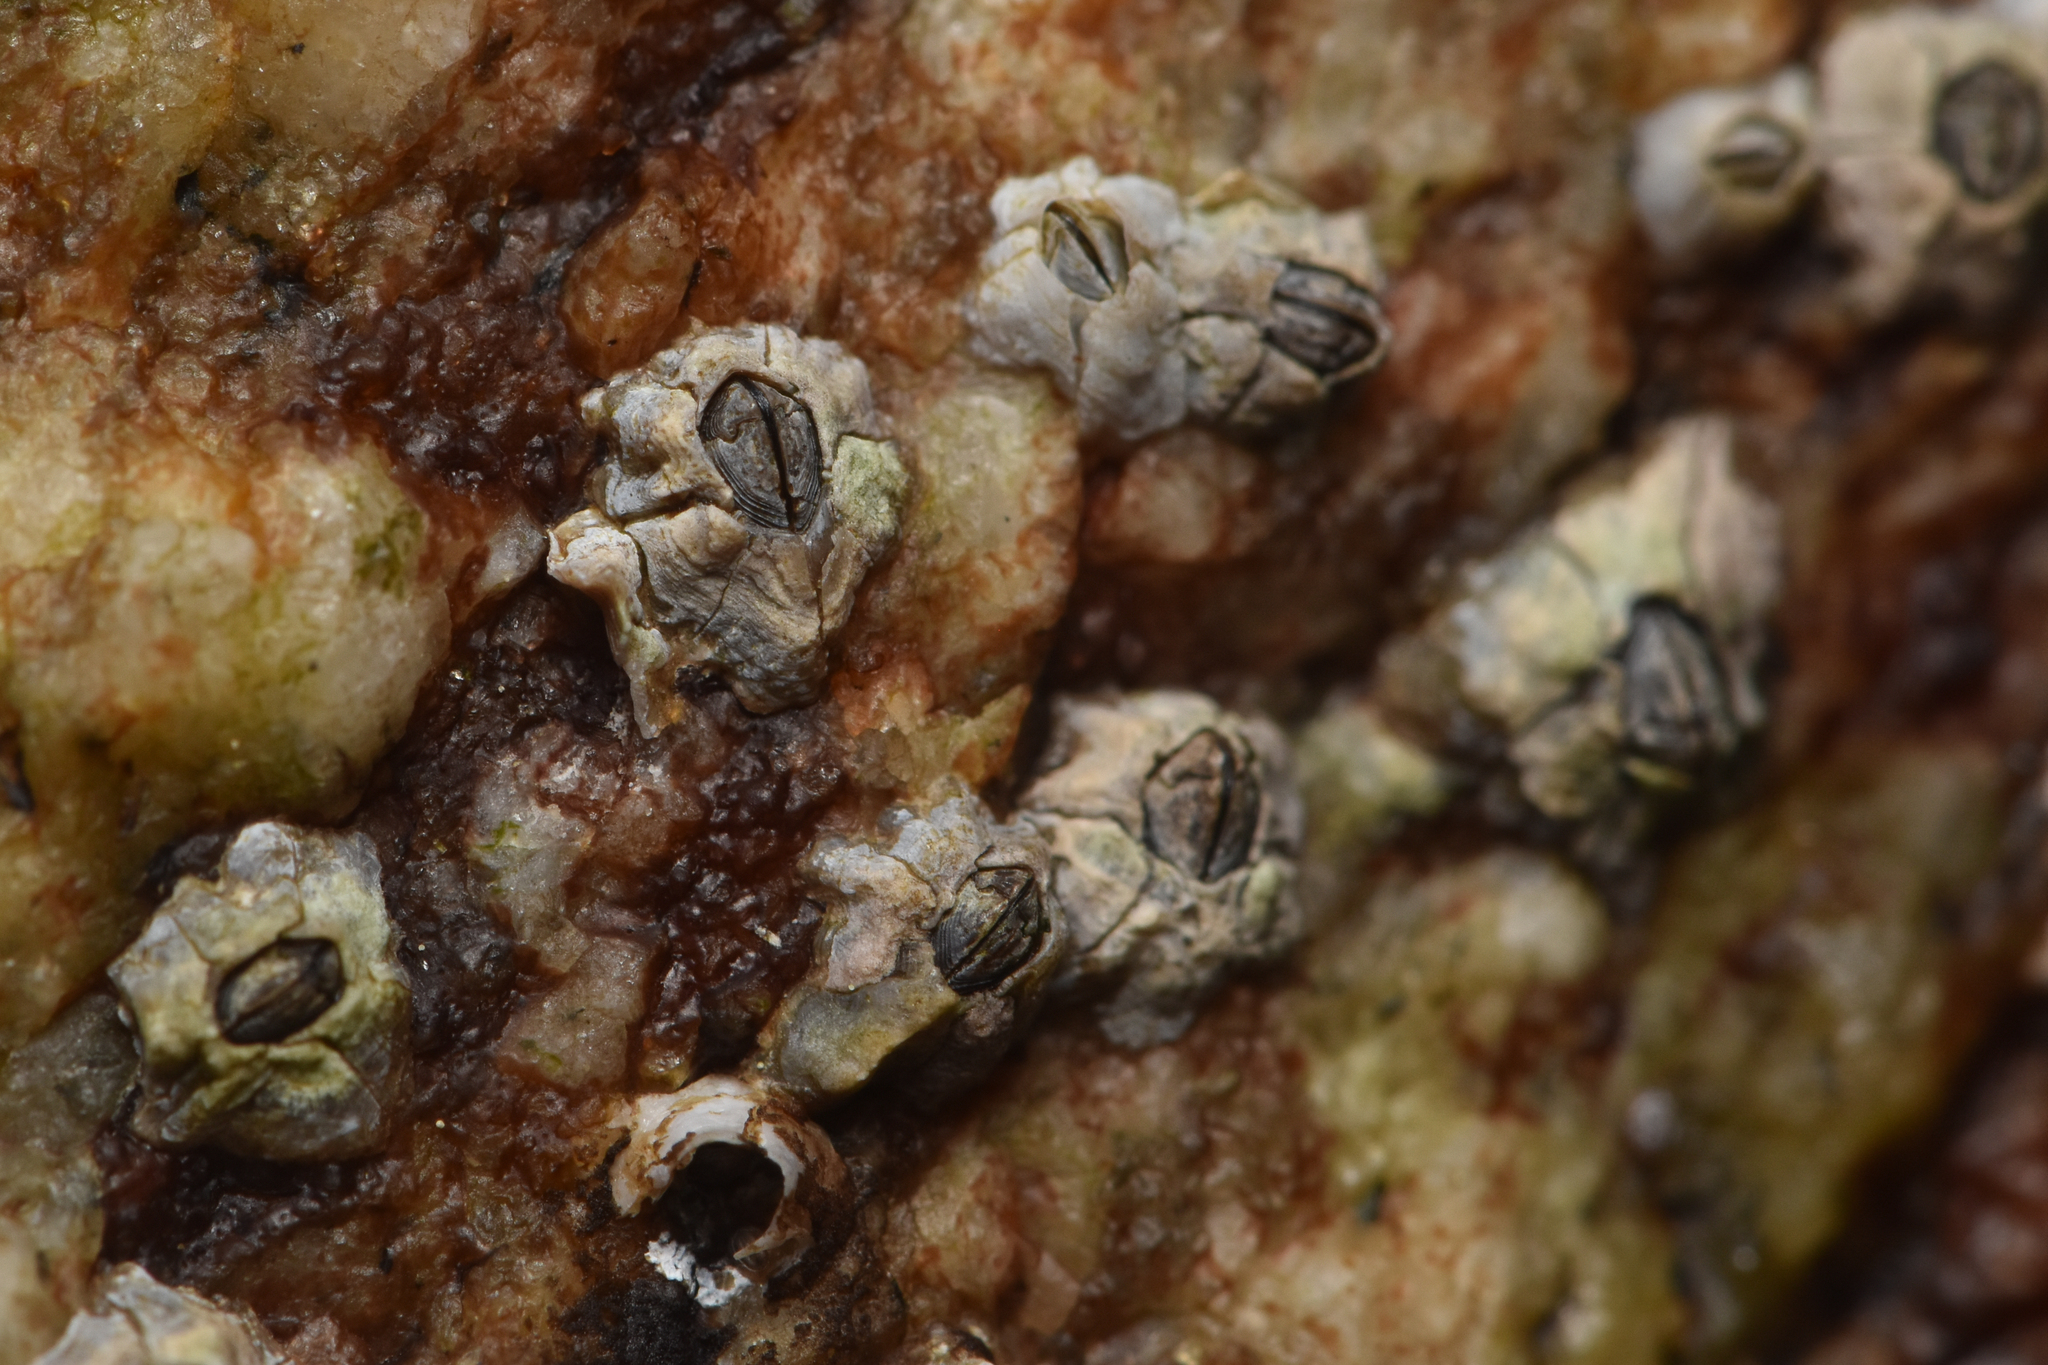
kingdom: Animalia
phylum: Arthropoda
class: Maxillopoda
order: Sessilia
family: Chthamalidae
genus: Chthamalus
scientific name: Chthamalus dalli
